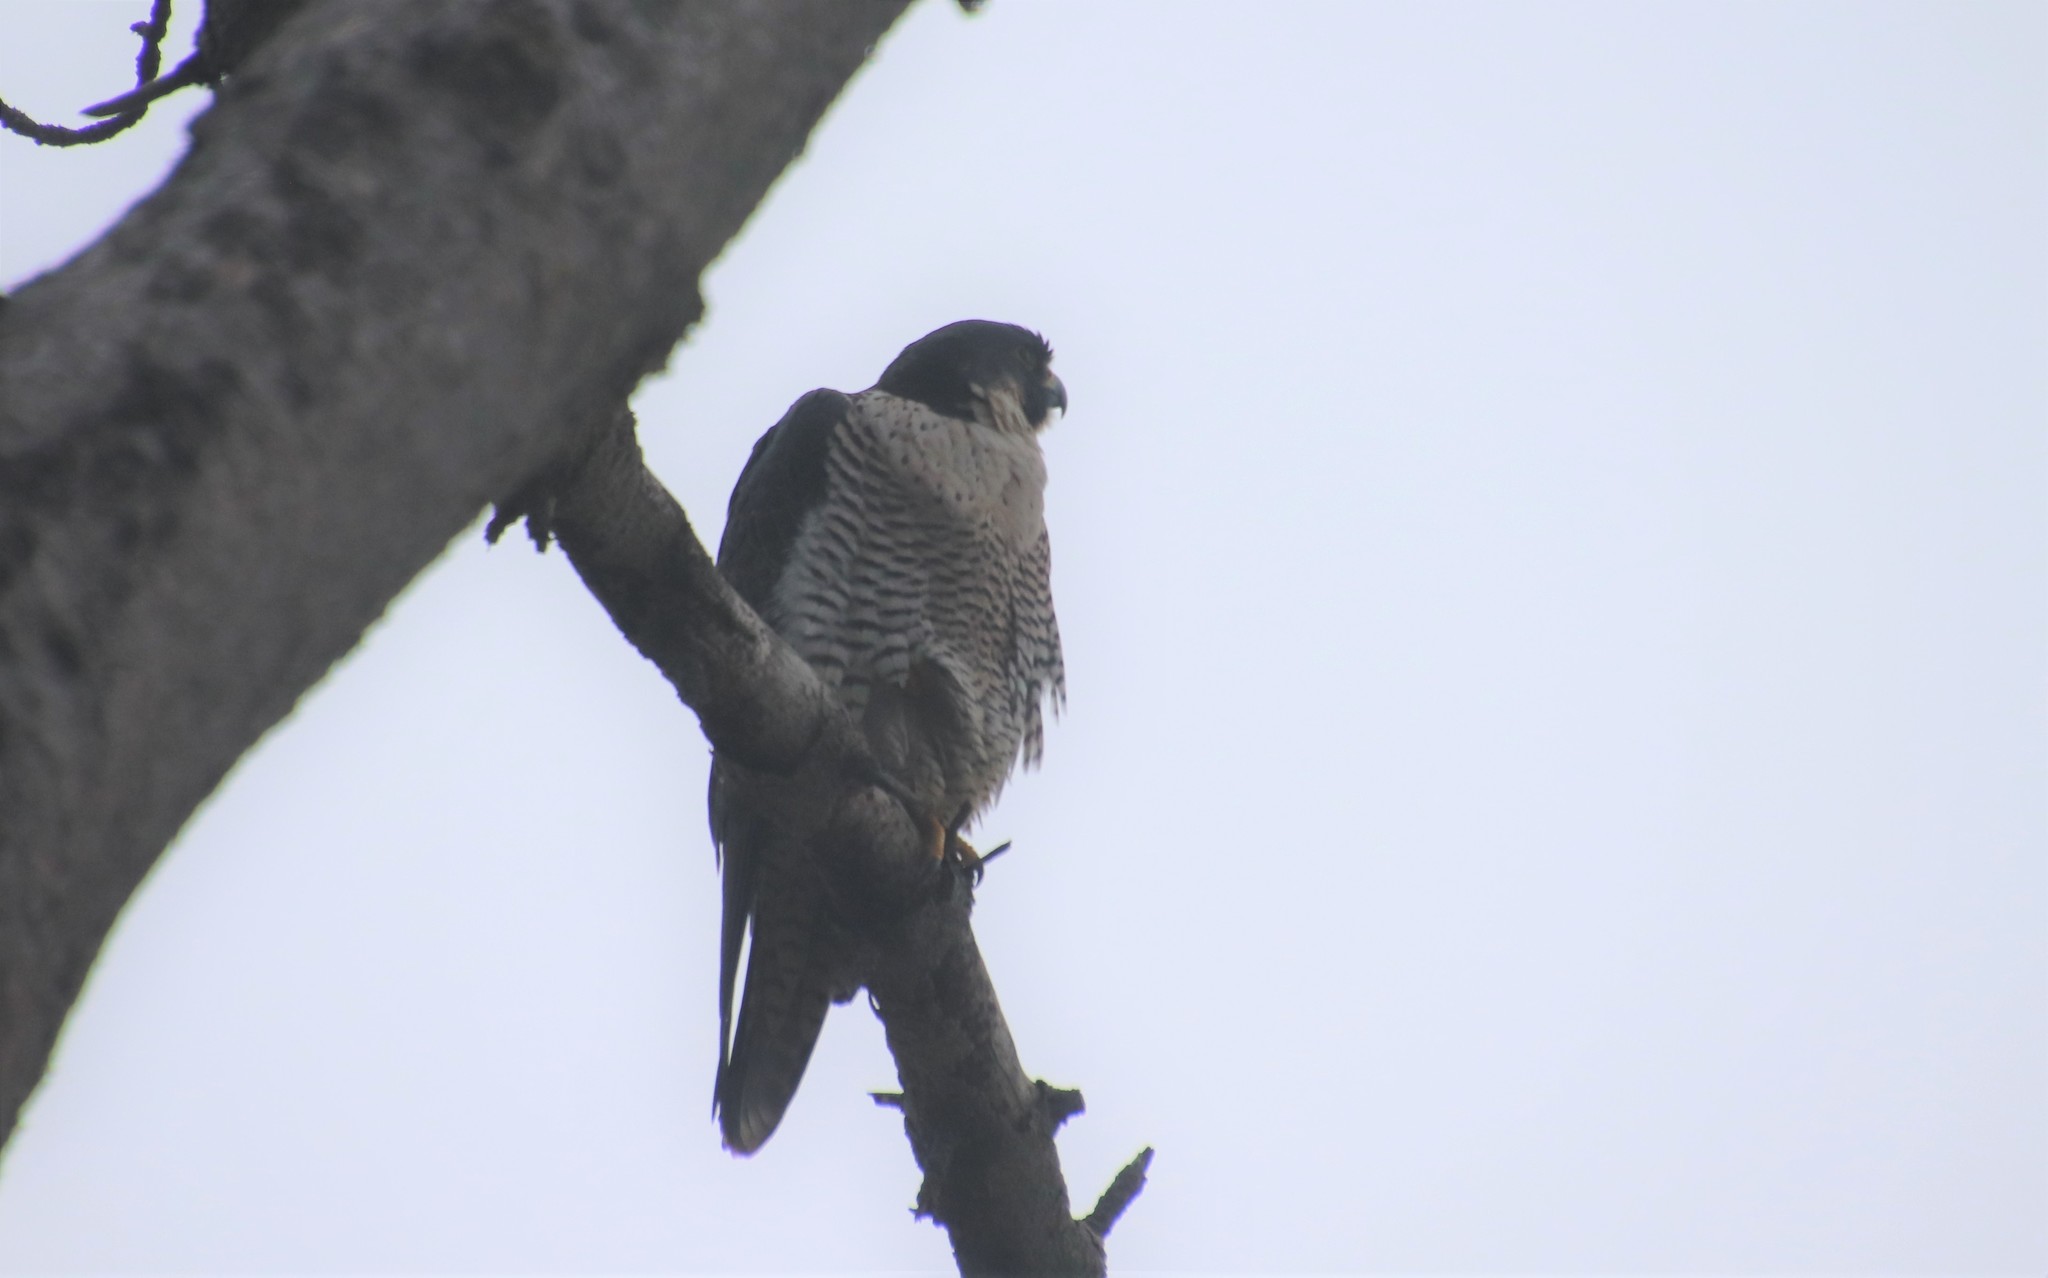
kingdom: Animalia
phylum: Chordata
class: Aves
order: Falconiformes
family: Falconidae
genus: Falco
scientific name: Falco peregrinus
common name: Peregrine falcon
